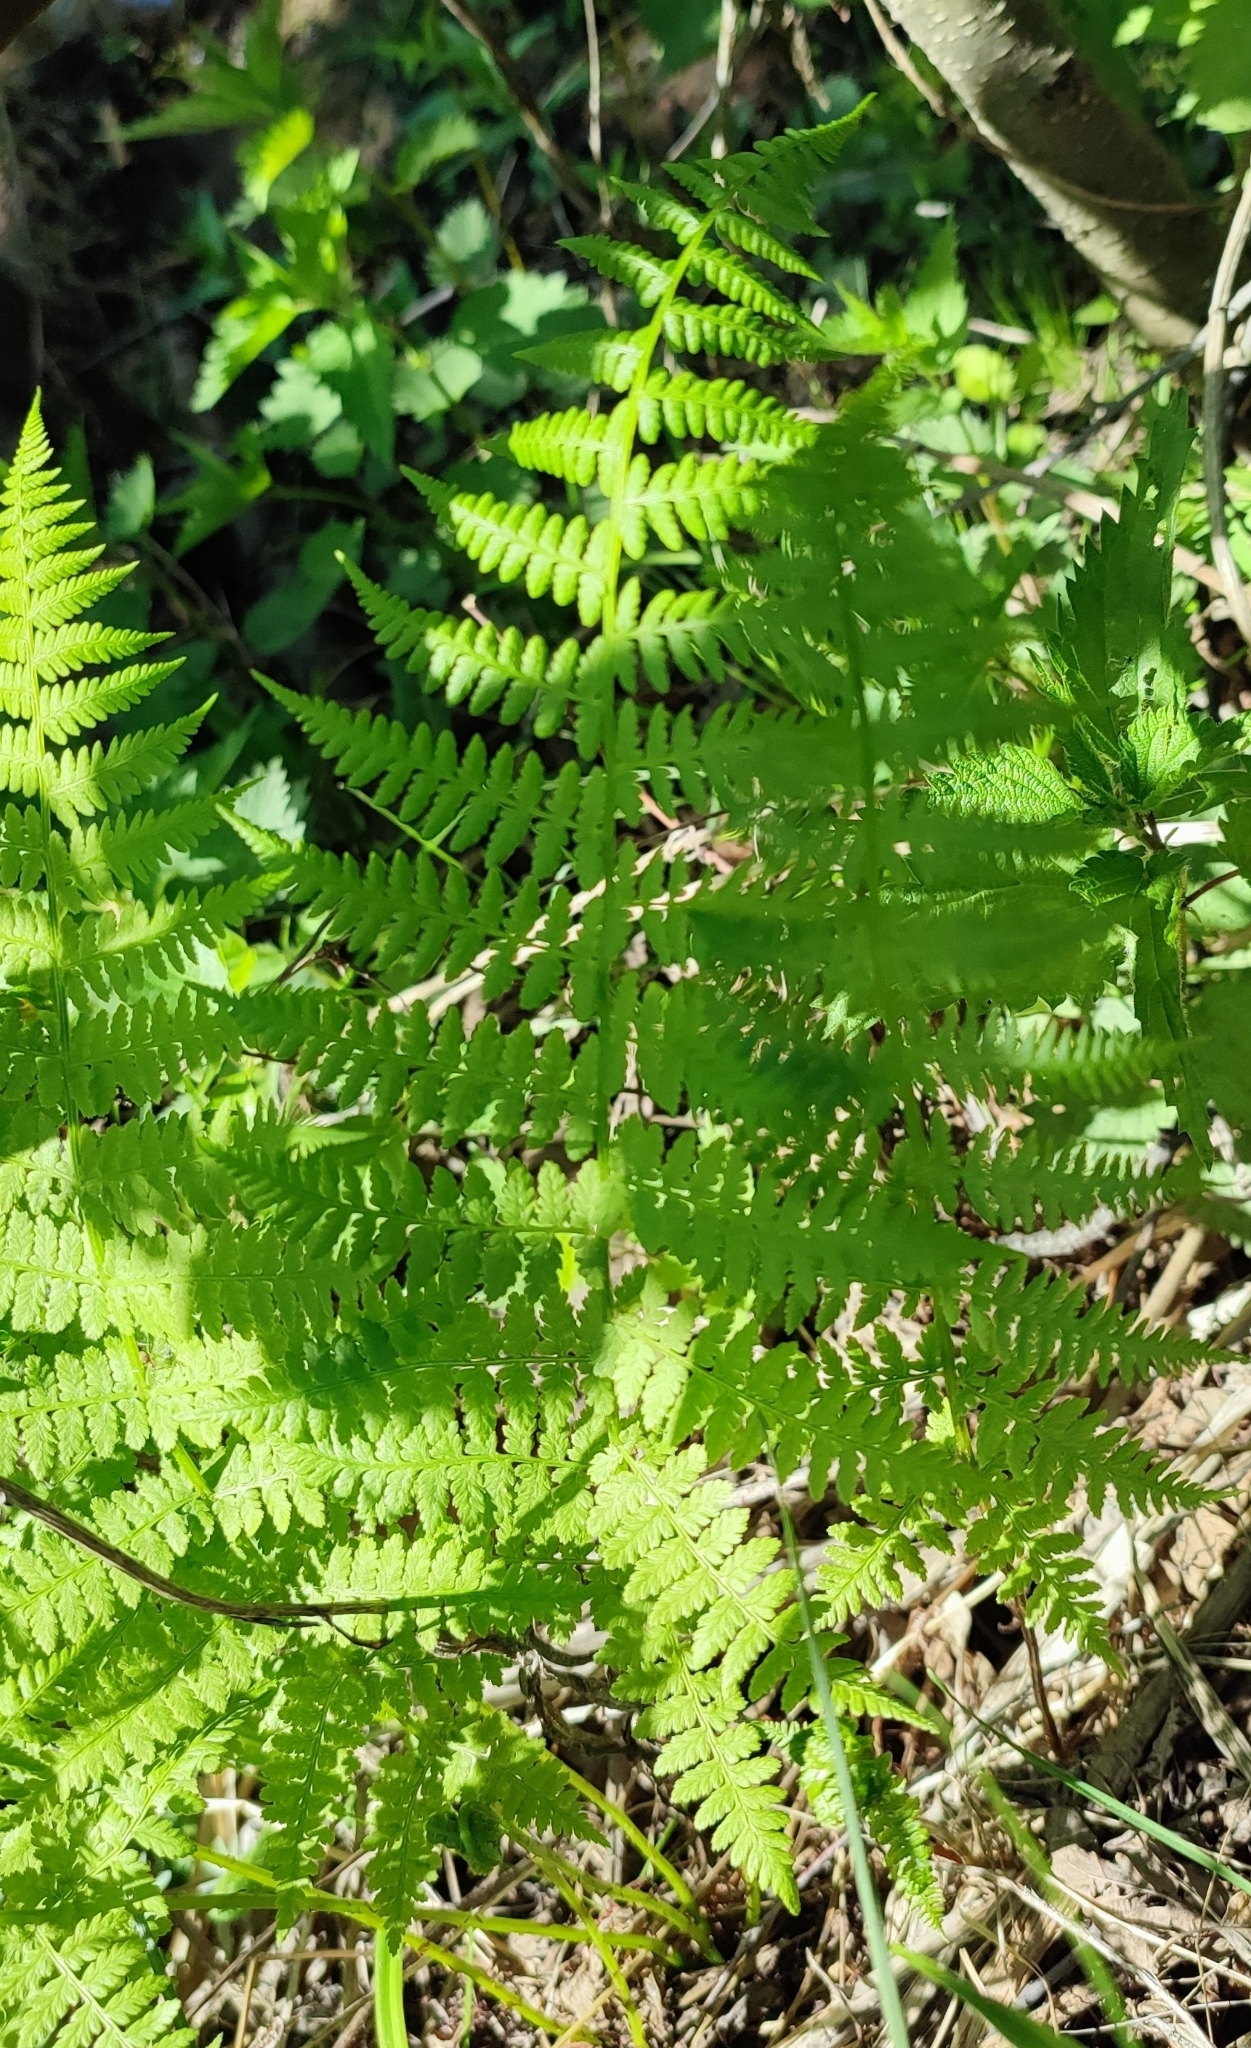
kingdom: Plantae
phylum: Tracheophyta
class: Polypodiopsida
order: Polypodiales
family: Athyriaceae
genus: Athyrium
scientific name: Athyrium filix-femina
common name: Lady fern
